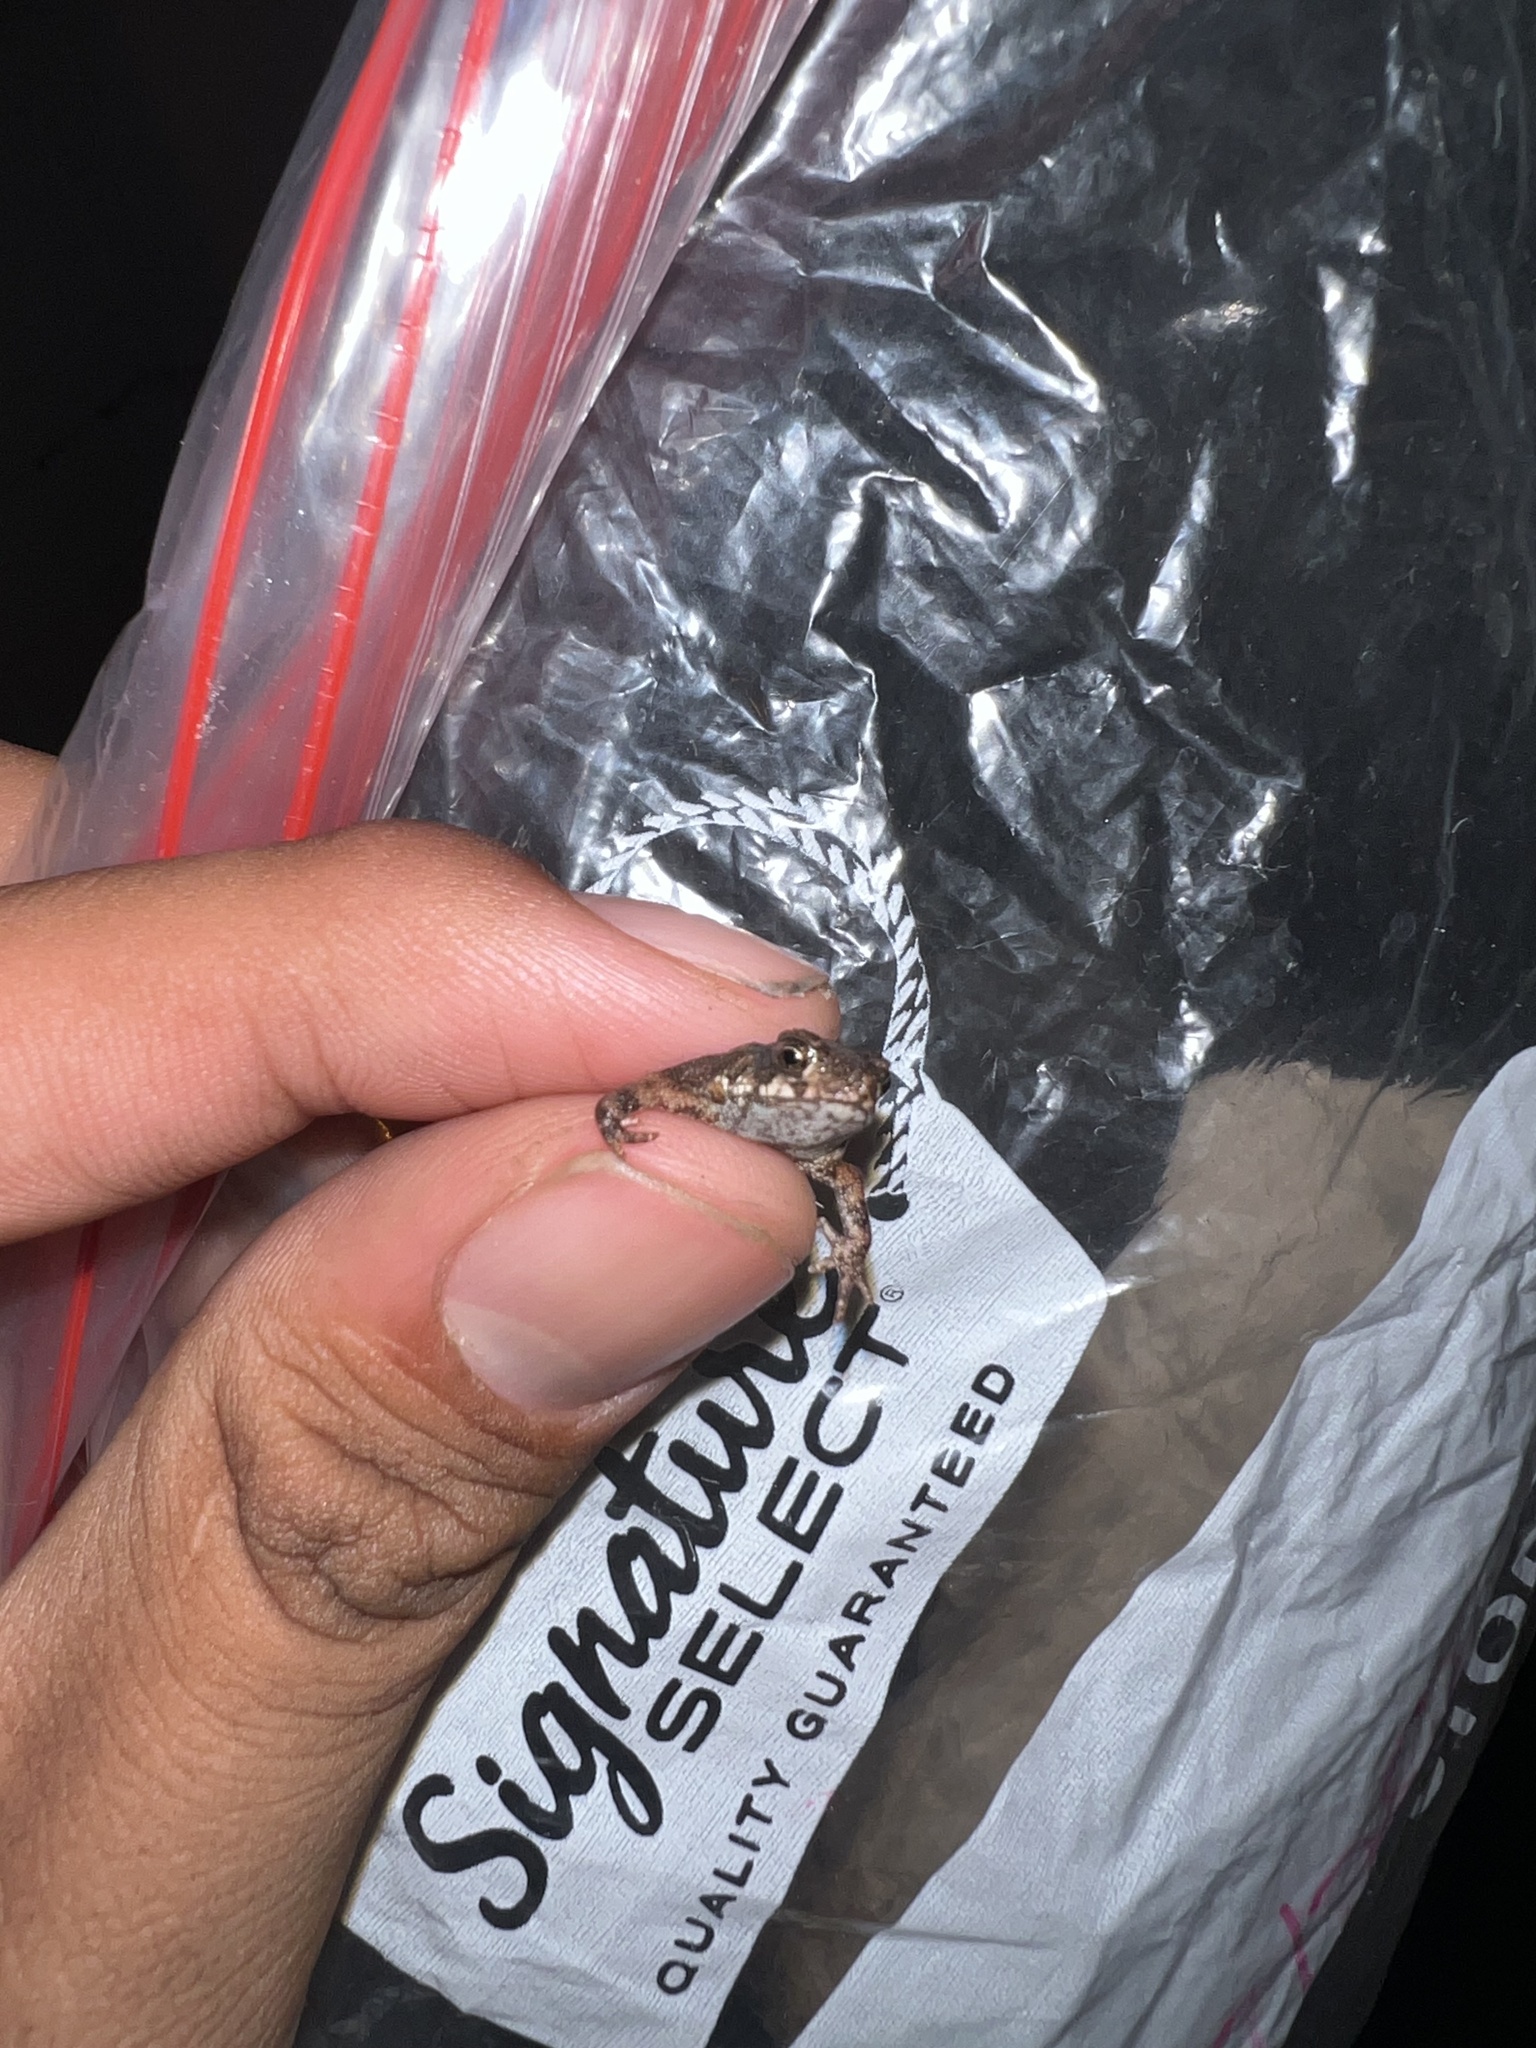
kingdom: Animalia
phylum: Chordata
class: Amphibia
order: Anura
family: Bufonidae
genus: Incilius
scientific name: Incilius nebulifer
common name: Gulf coast toad
